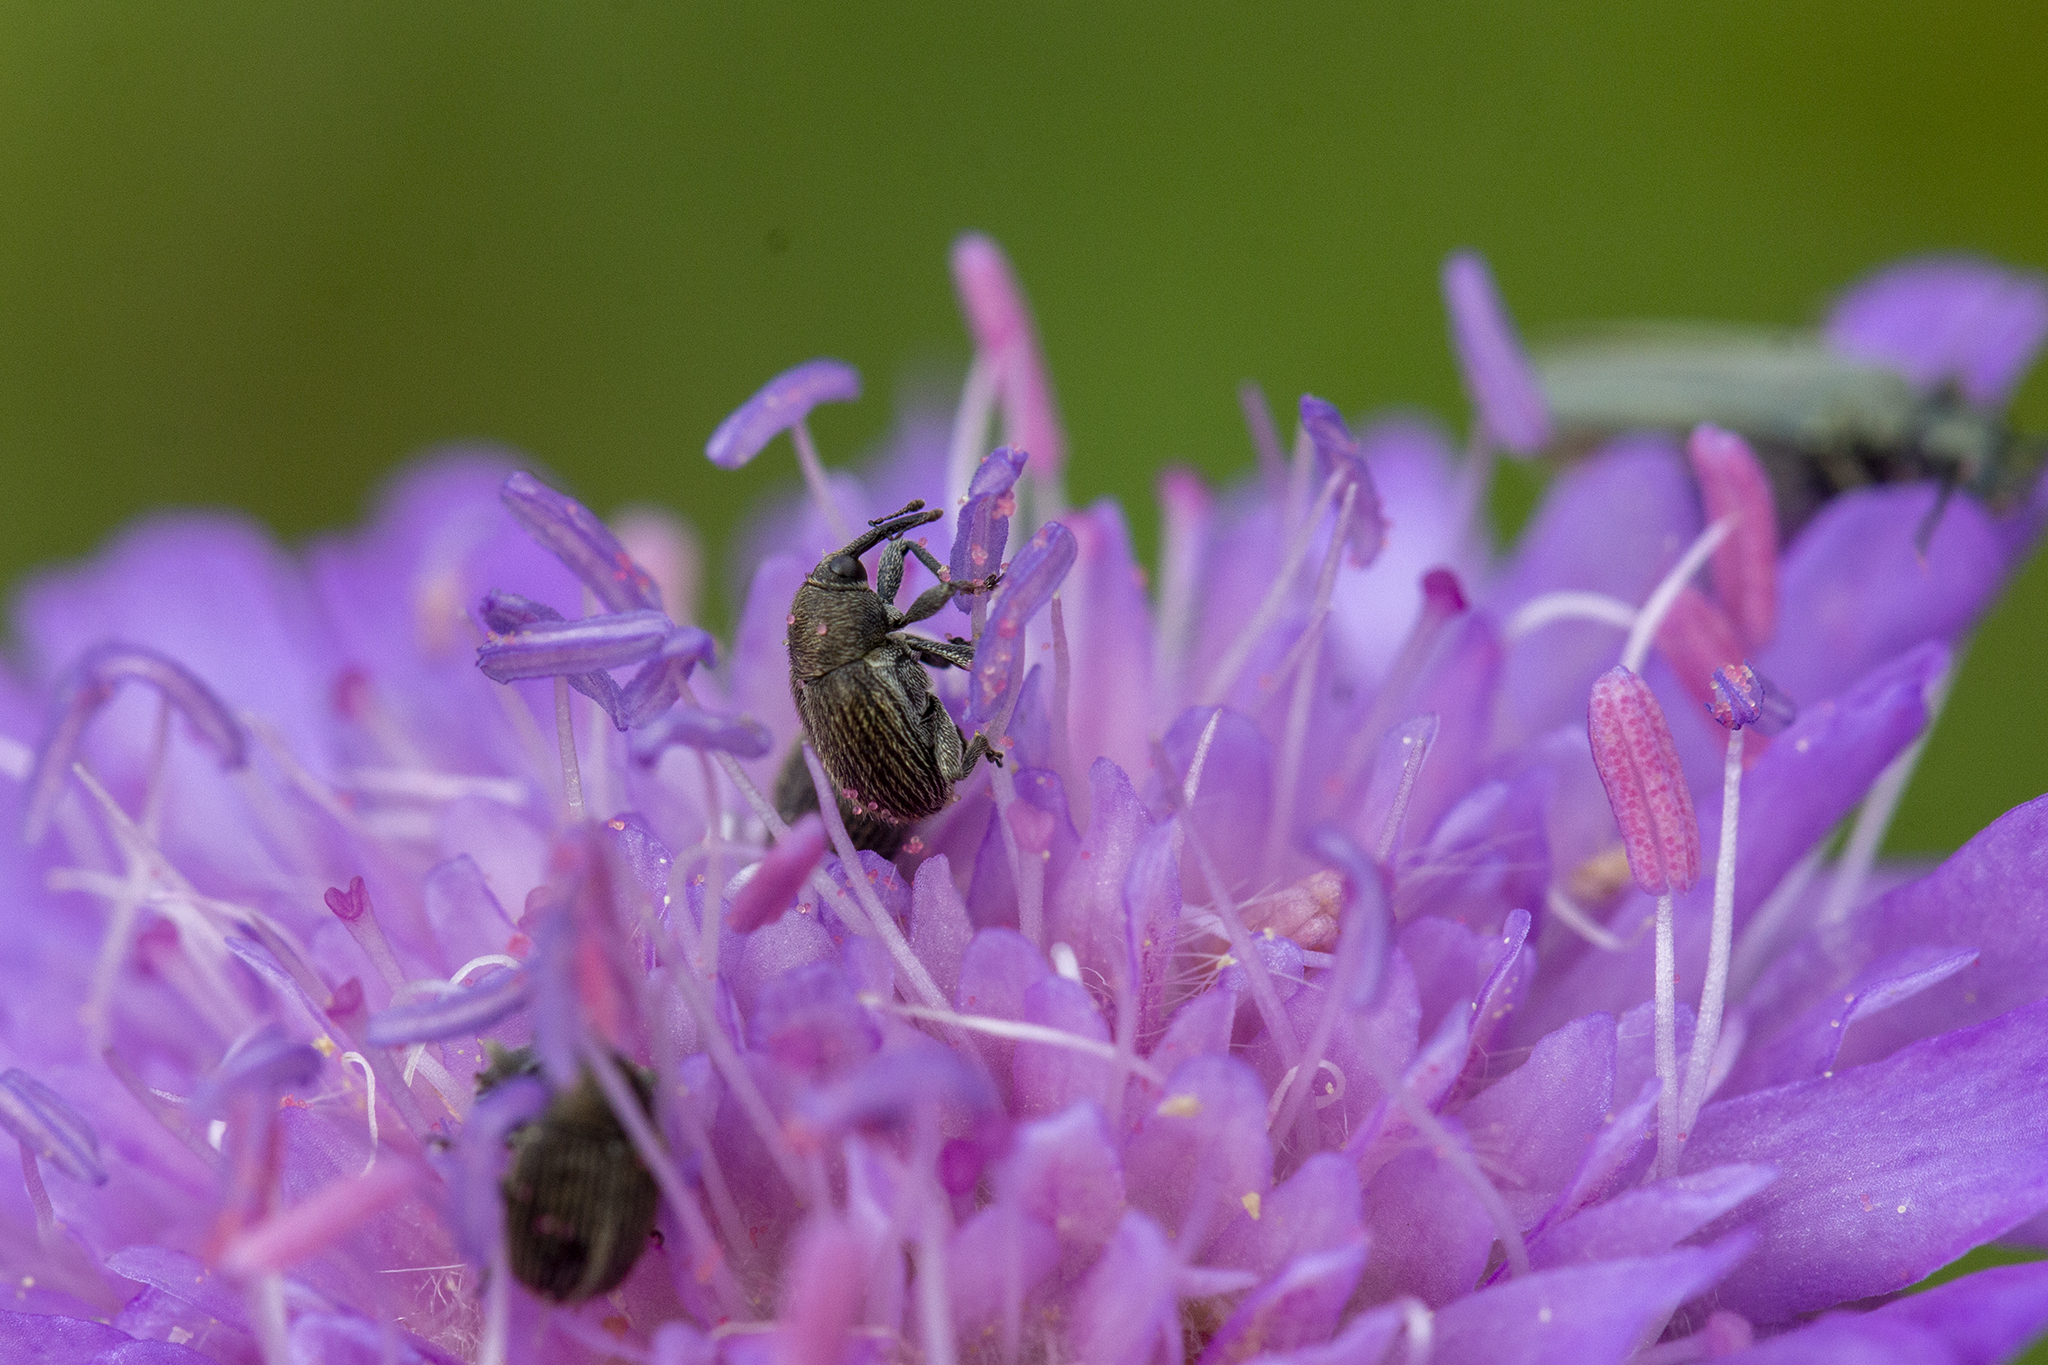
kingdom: Animalia
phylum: Arthropoda
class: Insecta
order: Coleoptera
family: Curculionidae
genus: Cleopomiarus
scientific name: Cleopomiarus graminis
